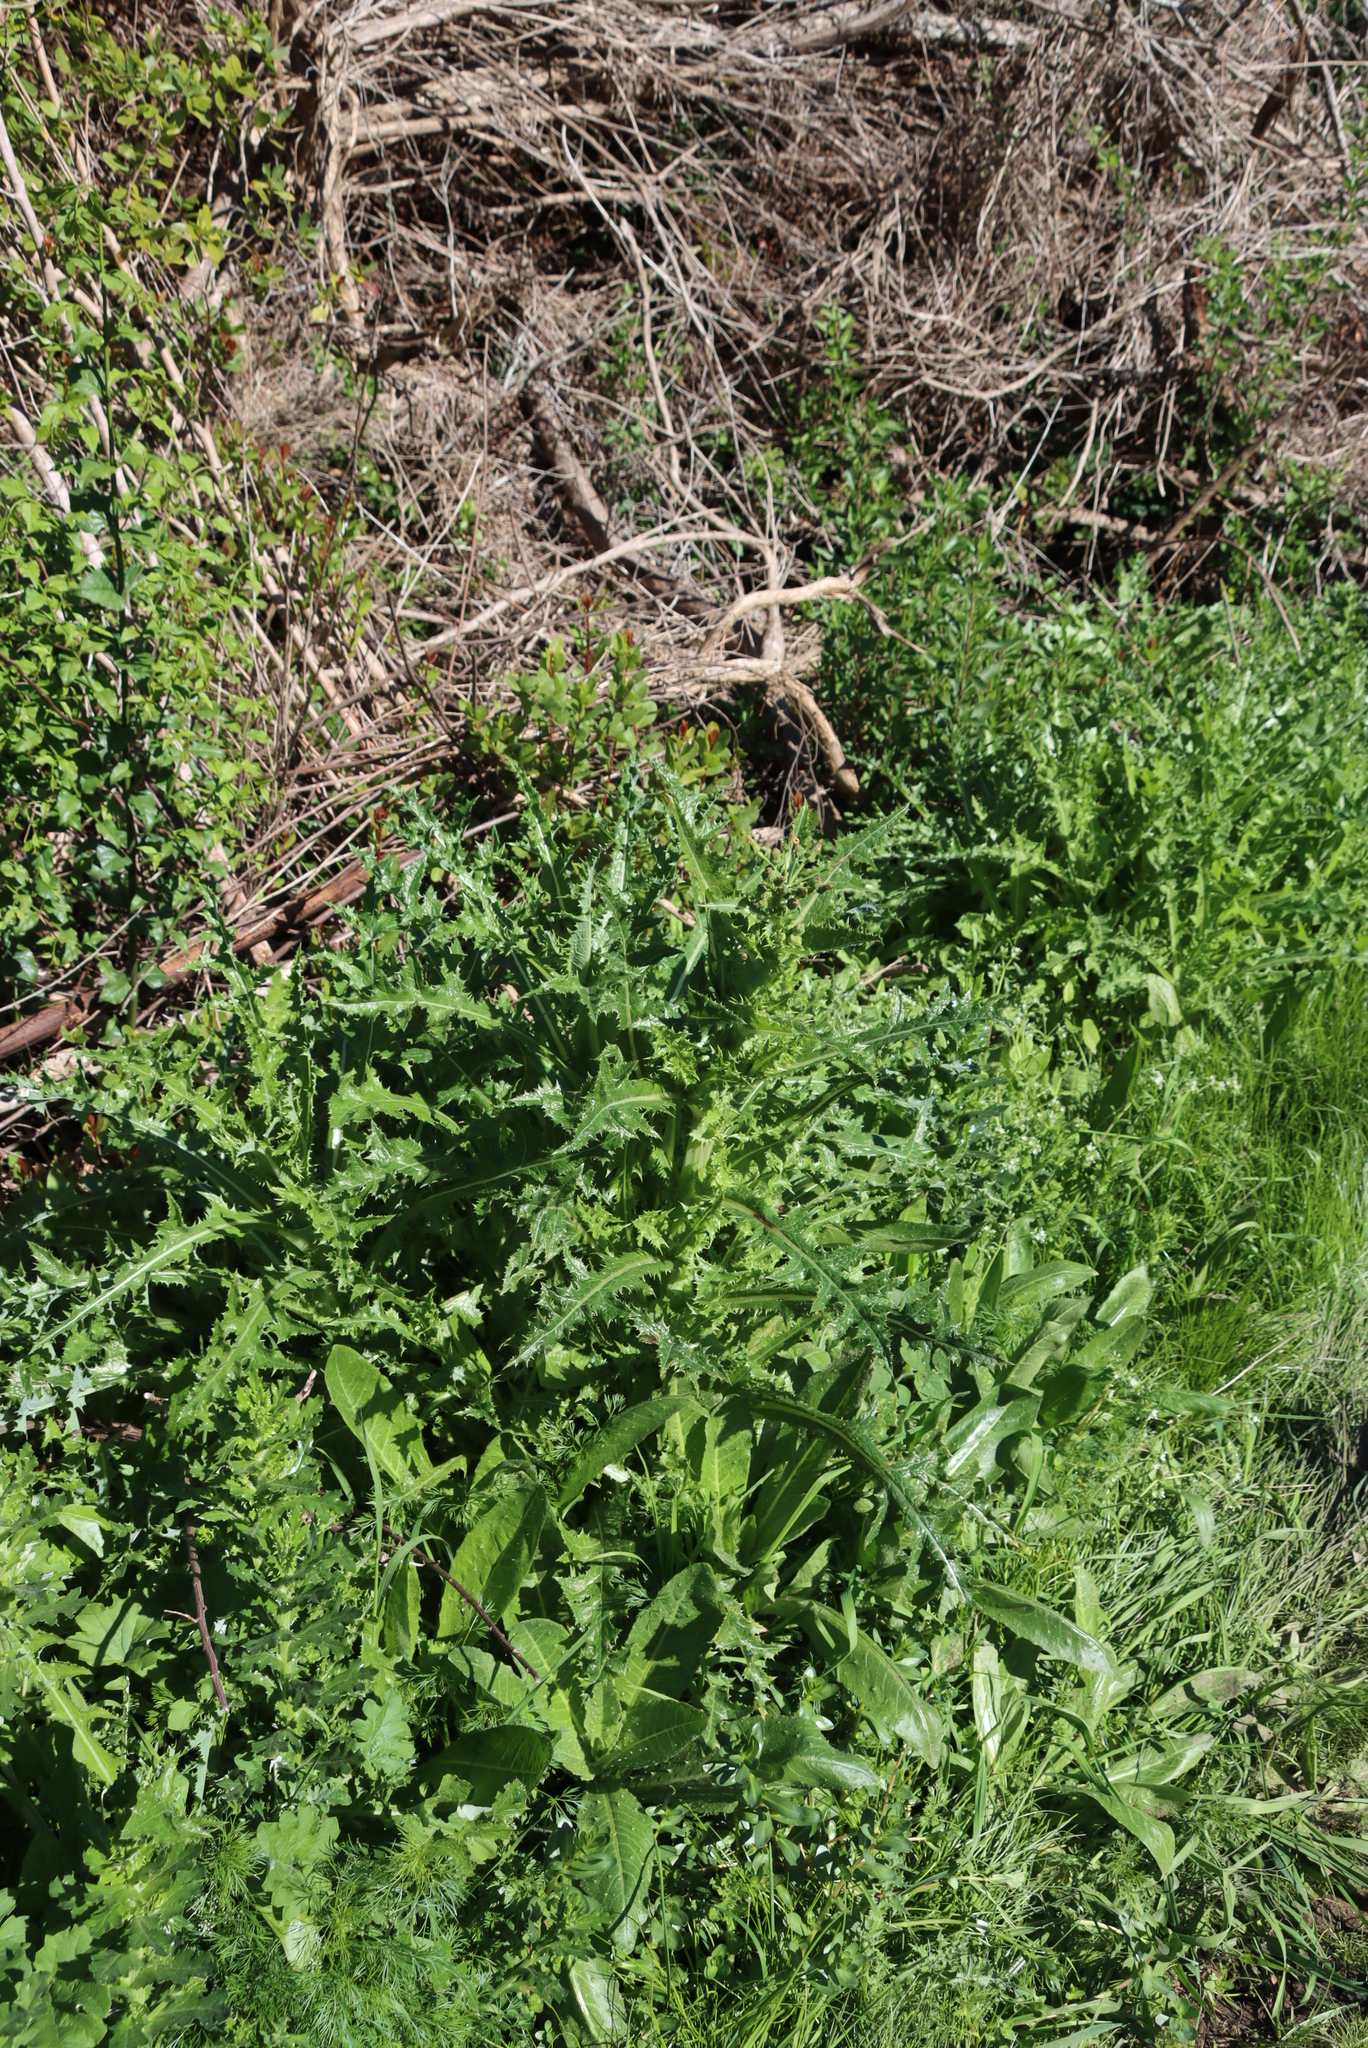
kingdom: Plantae
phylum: Tracheophyta
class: Magnoliopsida
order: Asterales
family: Asteraceae
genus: Sonchus
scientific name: Sonchus asper
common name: Prickly sow-thistle
